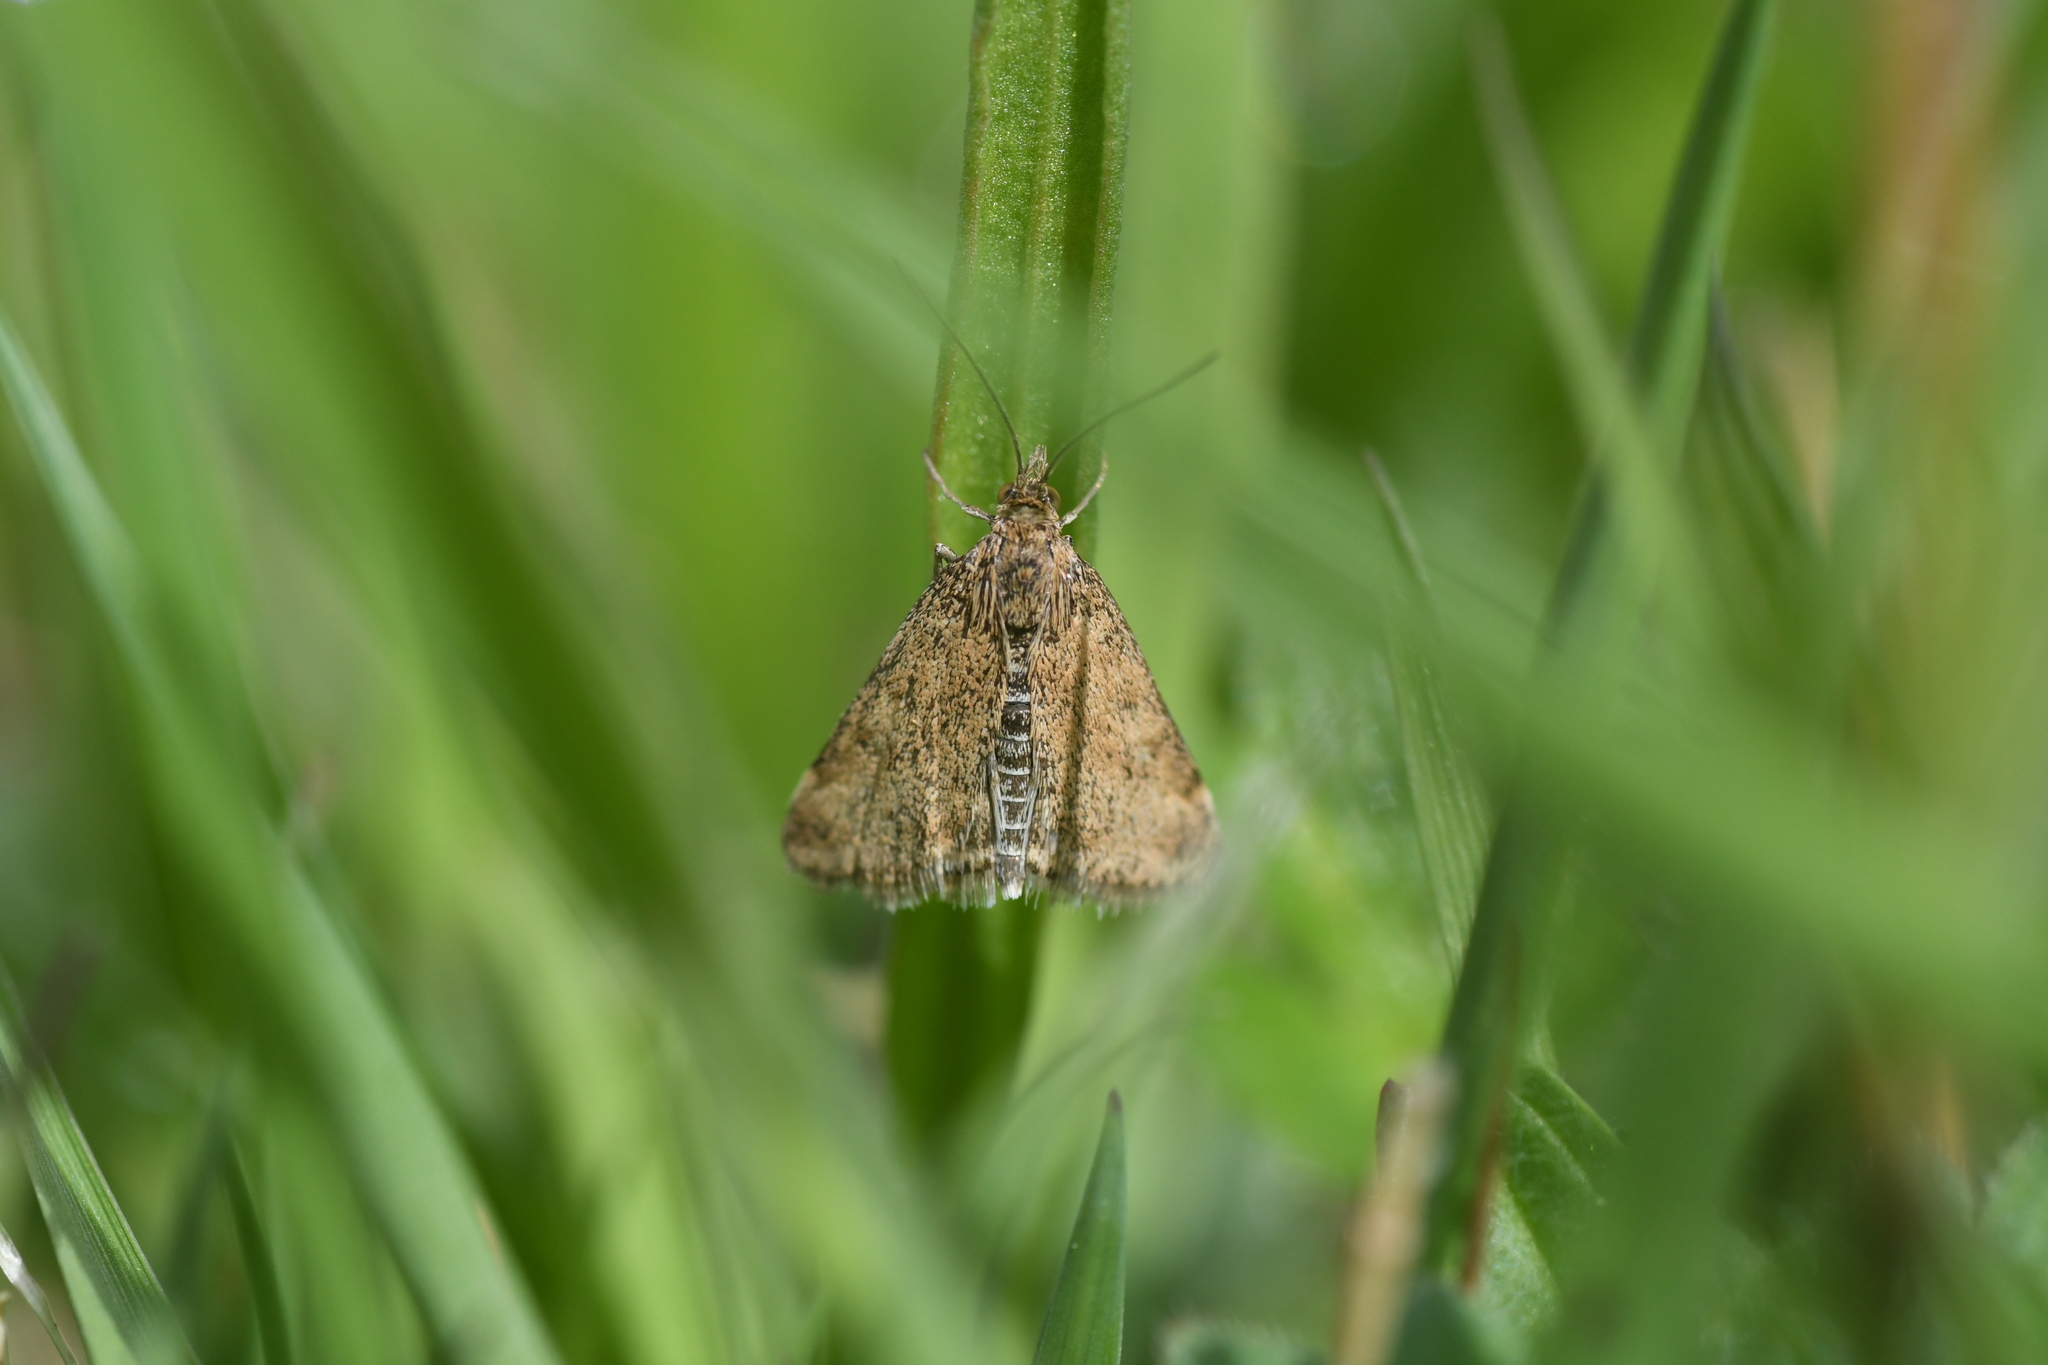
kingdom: Animalia
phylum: Arthropoda
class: Insecta
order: Lepidoptera
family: Crambidae
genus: Pyrausta
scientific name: Pyrausta despicata
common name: Straw-barred pearl
